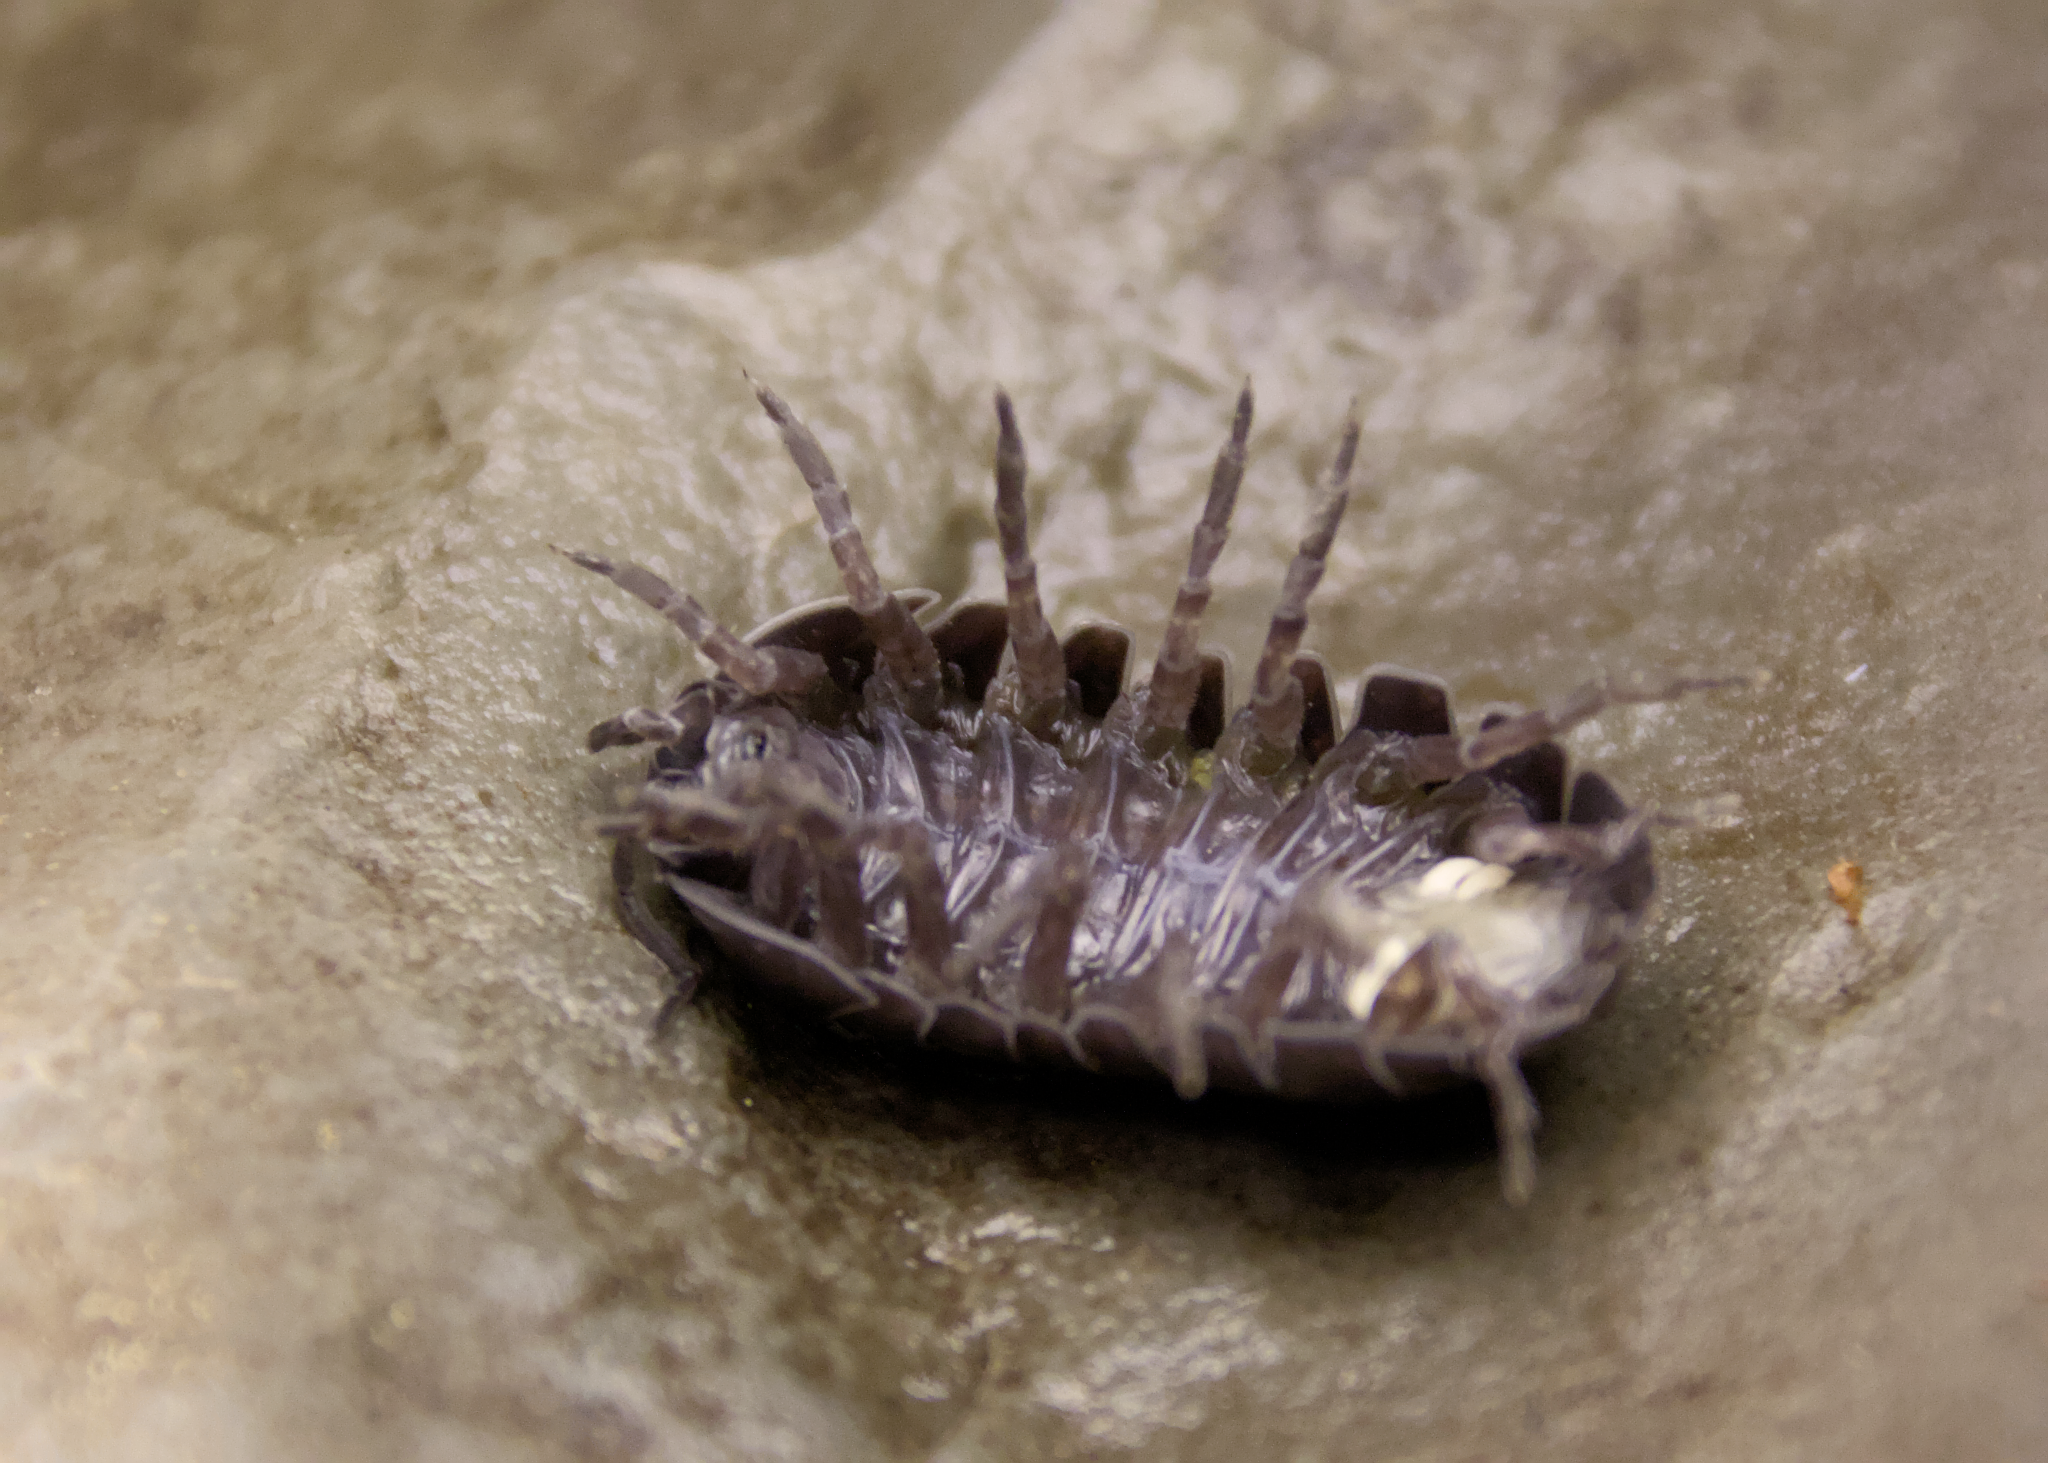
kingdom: Animalia
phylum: Arthropoda
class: Malacostraca
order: Isopoda
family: Armadillidiidae
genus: Armadillidium
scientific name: Armadillidium vulgare
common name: Common pill woodlouse
